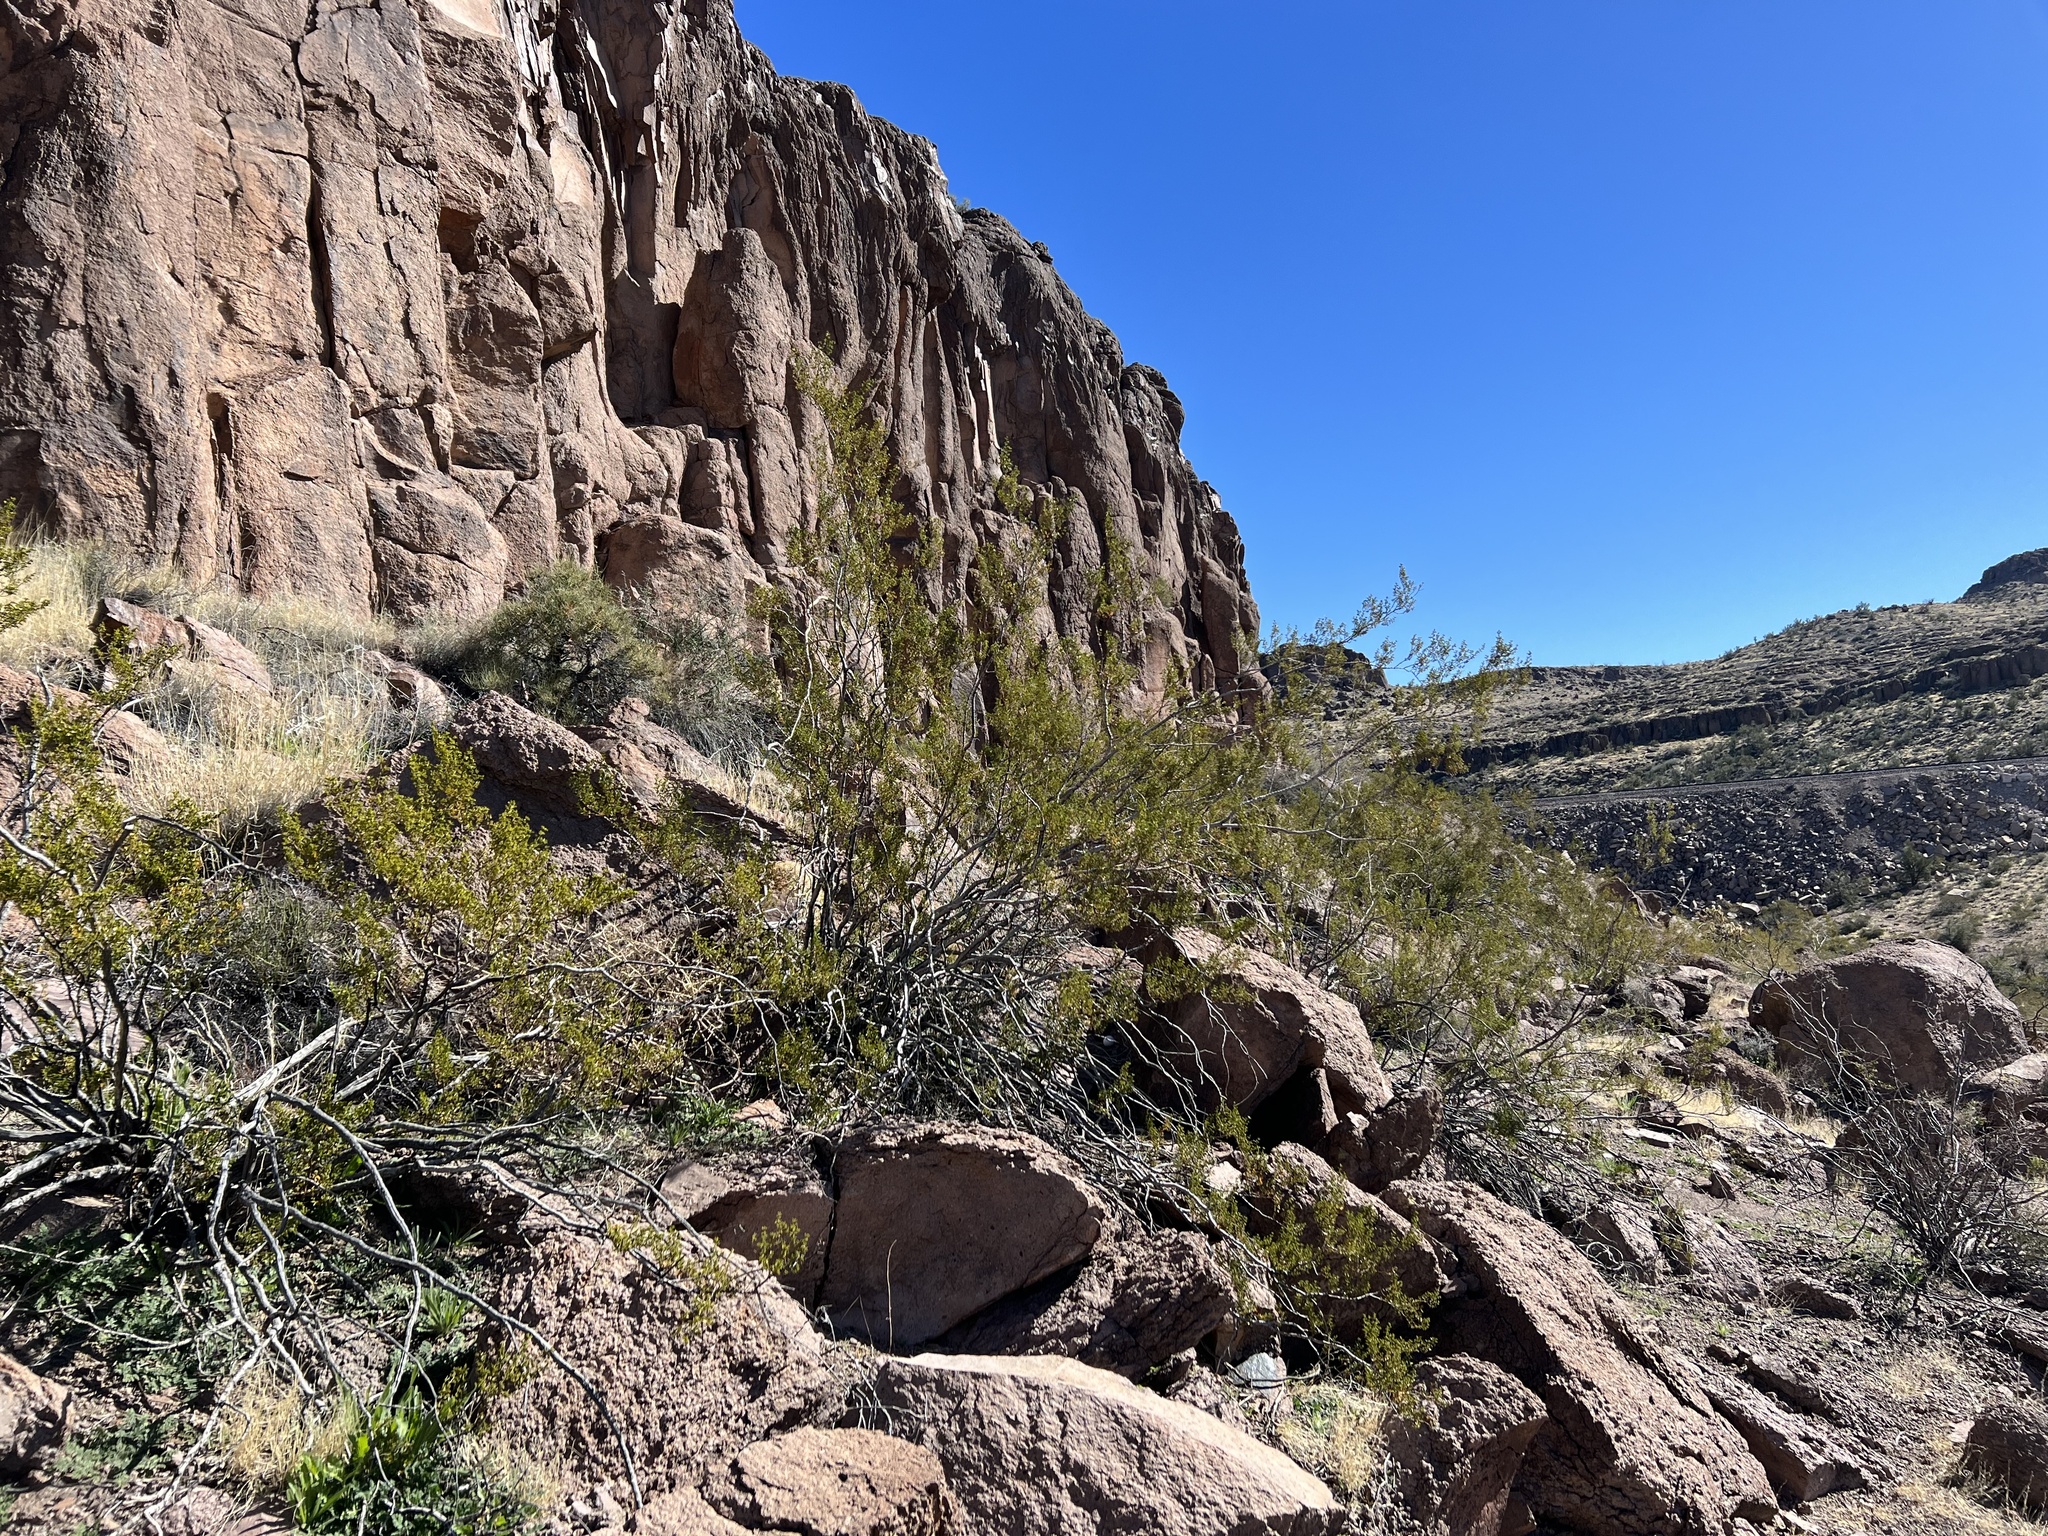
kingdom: Plantae
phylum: Tracheophyta
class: Magnoliopsida
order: Zygophyllales
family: Zygophyllaceae
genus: Larrea
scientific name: Larrea tridentata
